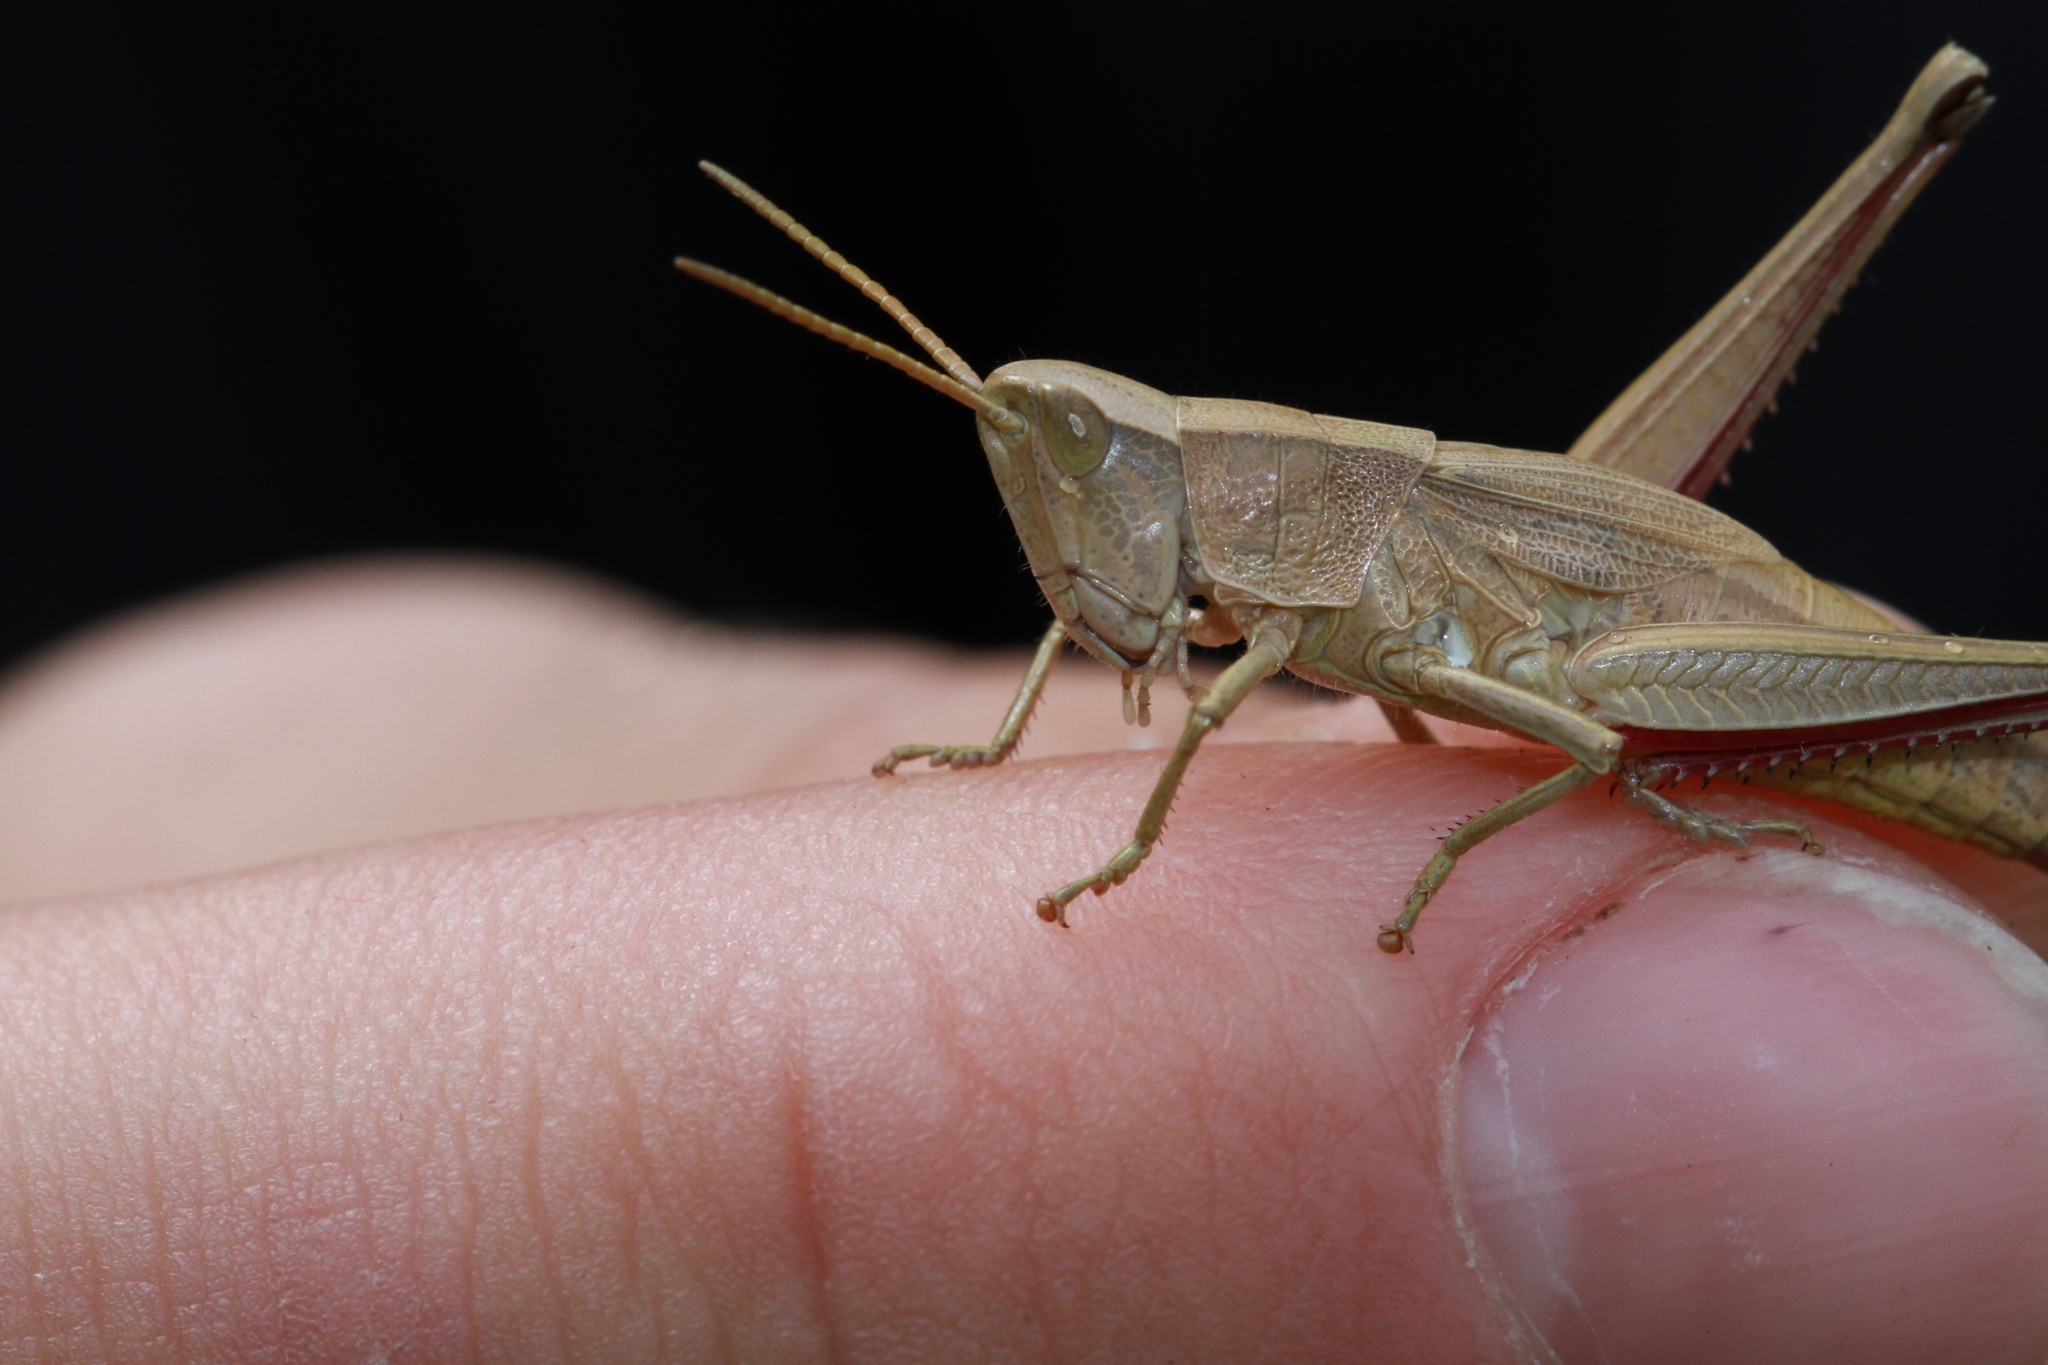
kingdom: Animalia
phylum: Arthropoda
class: Insecta
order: Orthoptera
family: Acrididae
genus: Chrysochraon
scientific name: Chrysochraon dispar
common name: Large gold grasshopper
